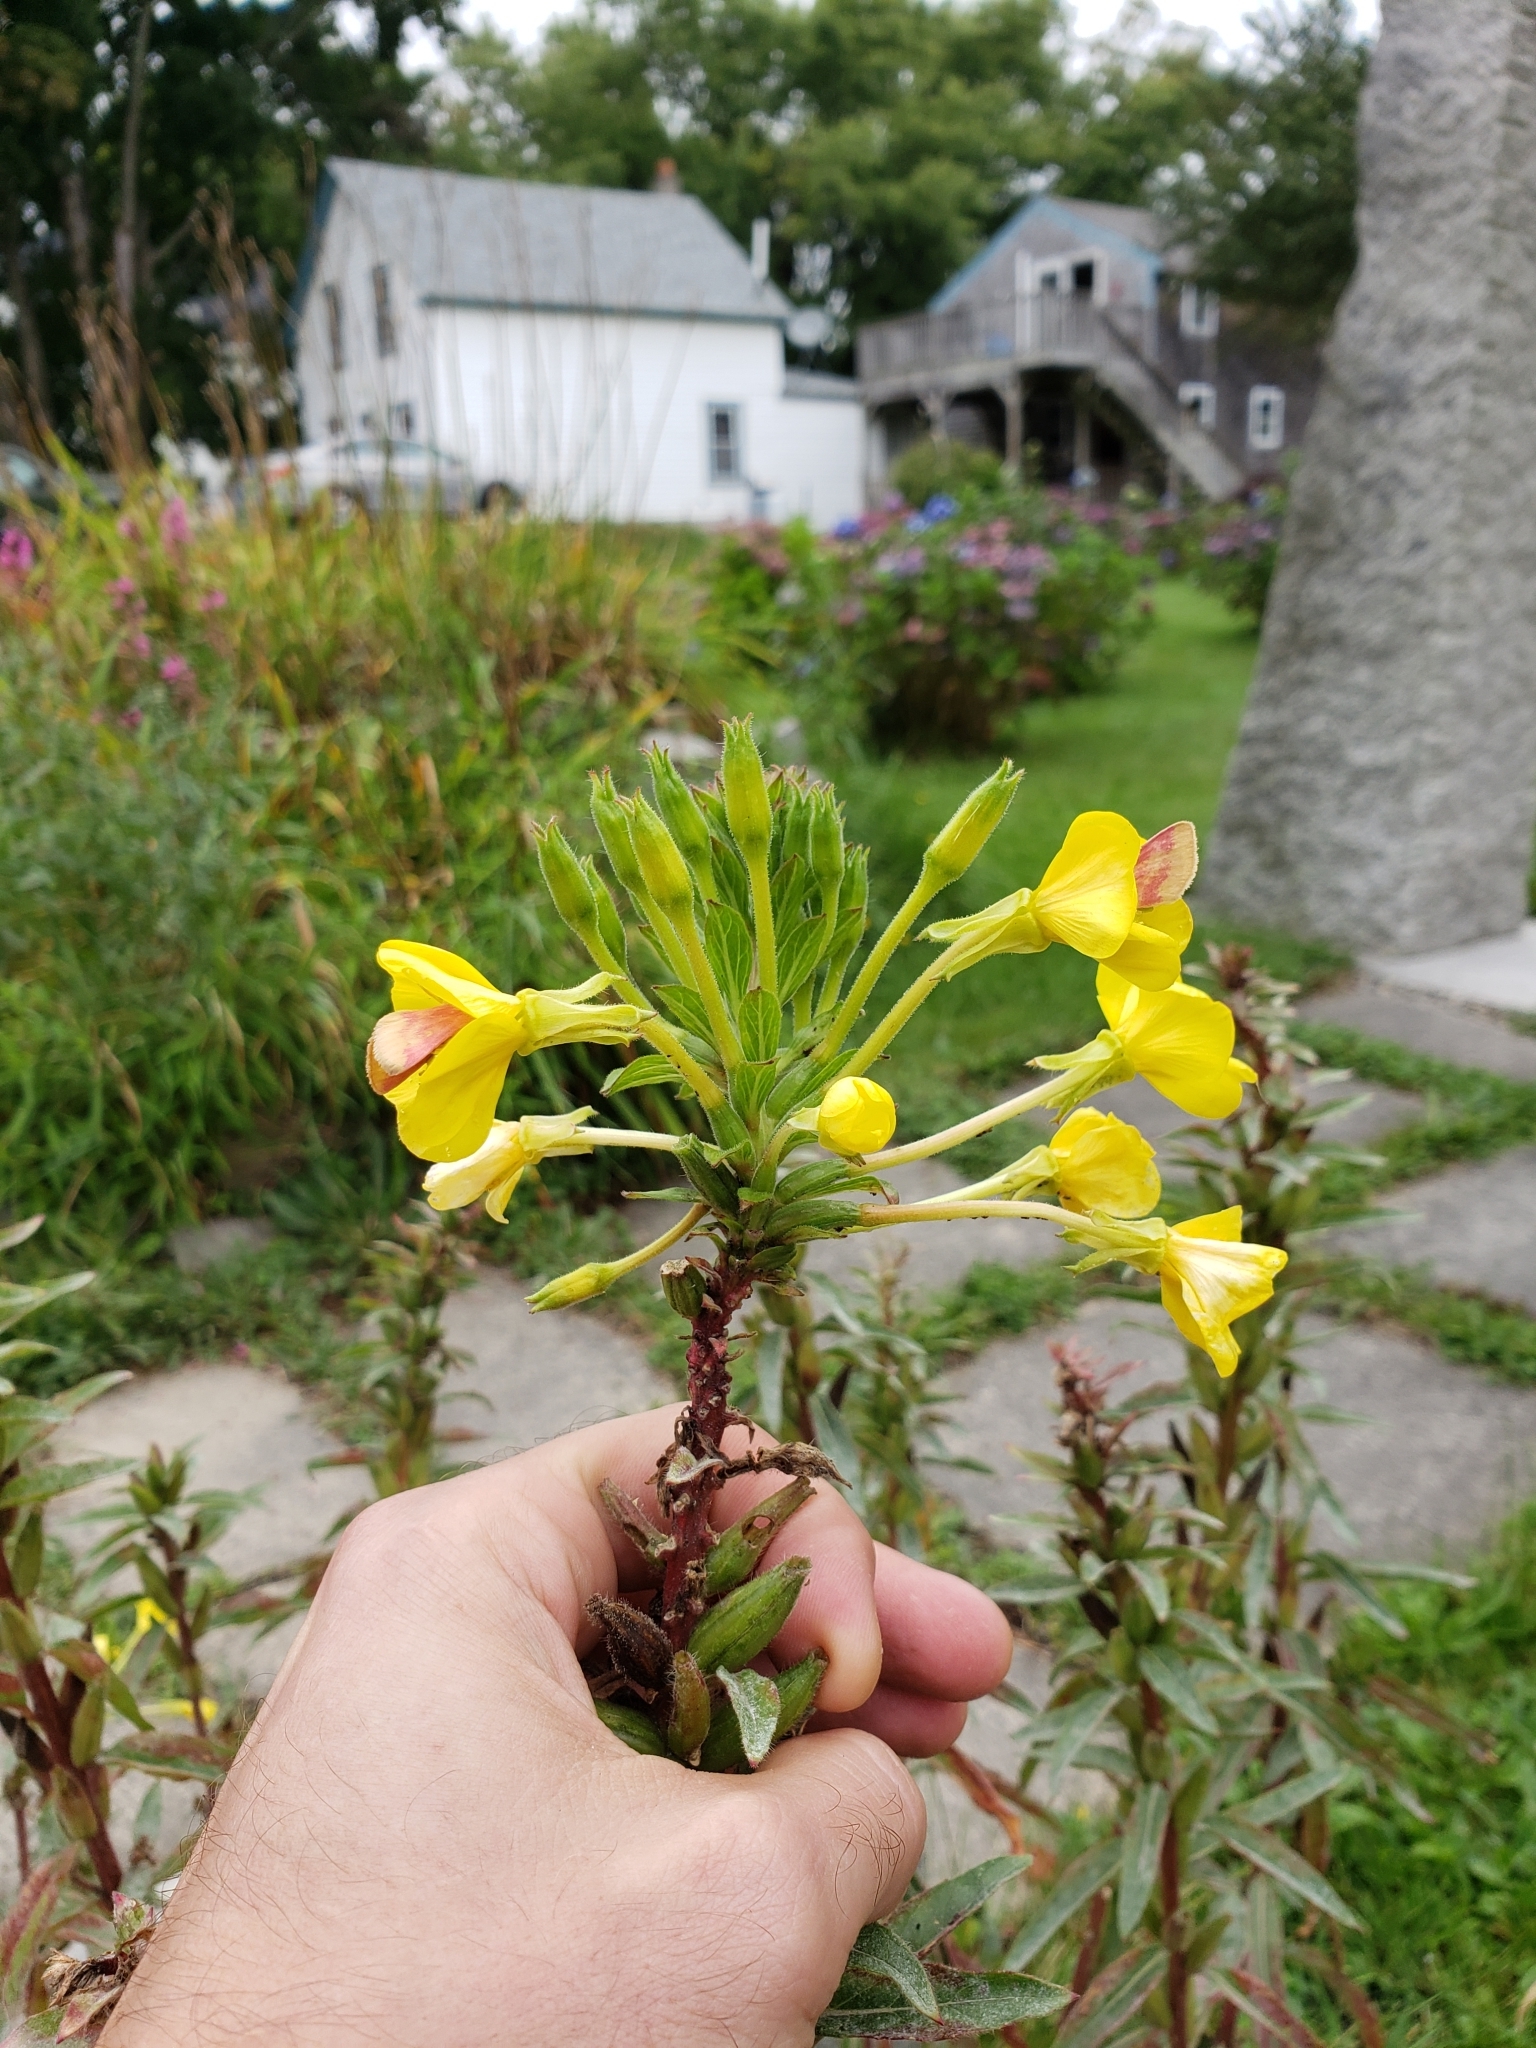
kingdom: Animalia
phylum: Arthropoda
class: Insecta
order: Lepidoptera
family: Noctuidae
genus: Schinia
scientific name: Schinia florida
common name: Primrose moth
